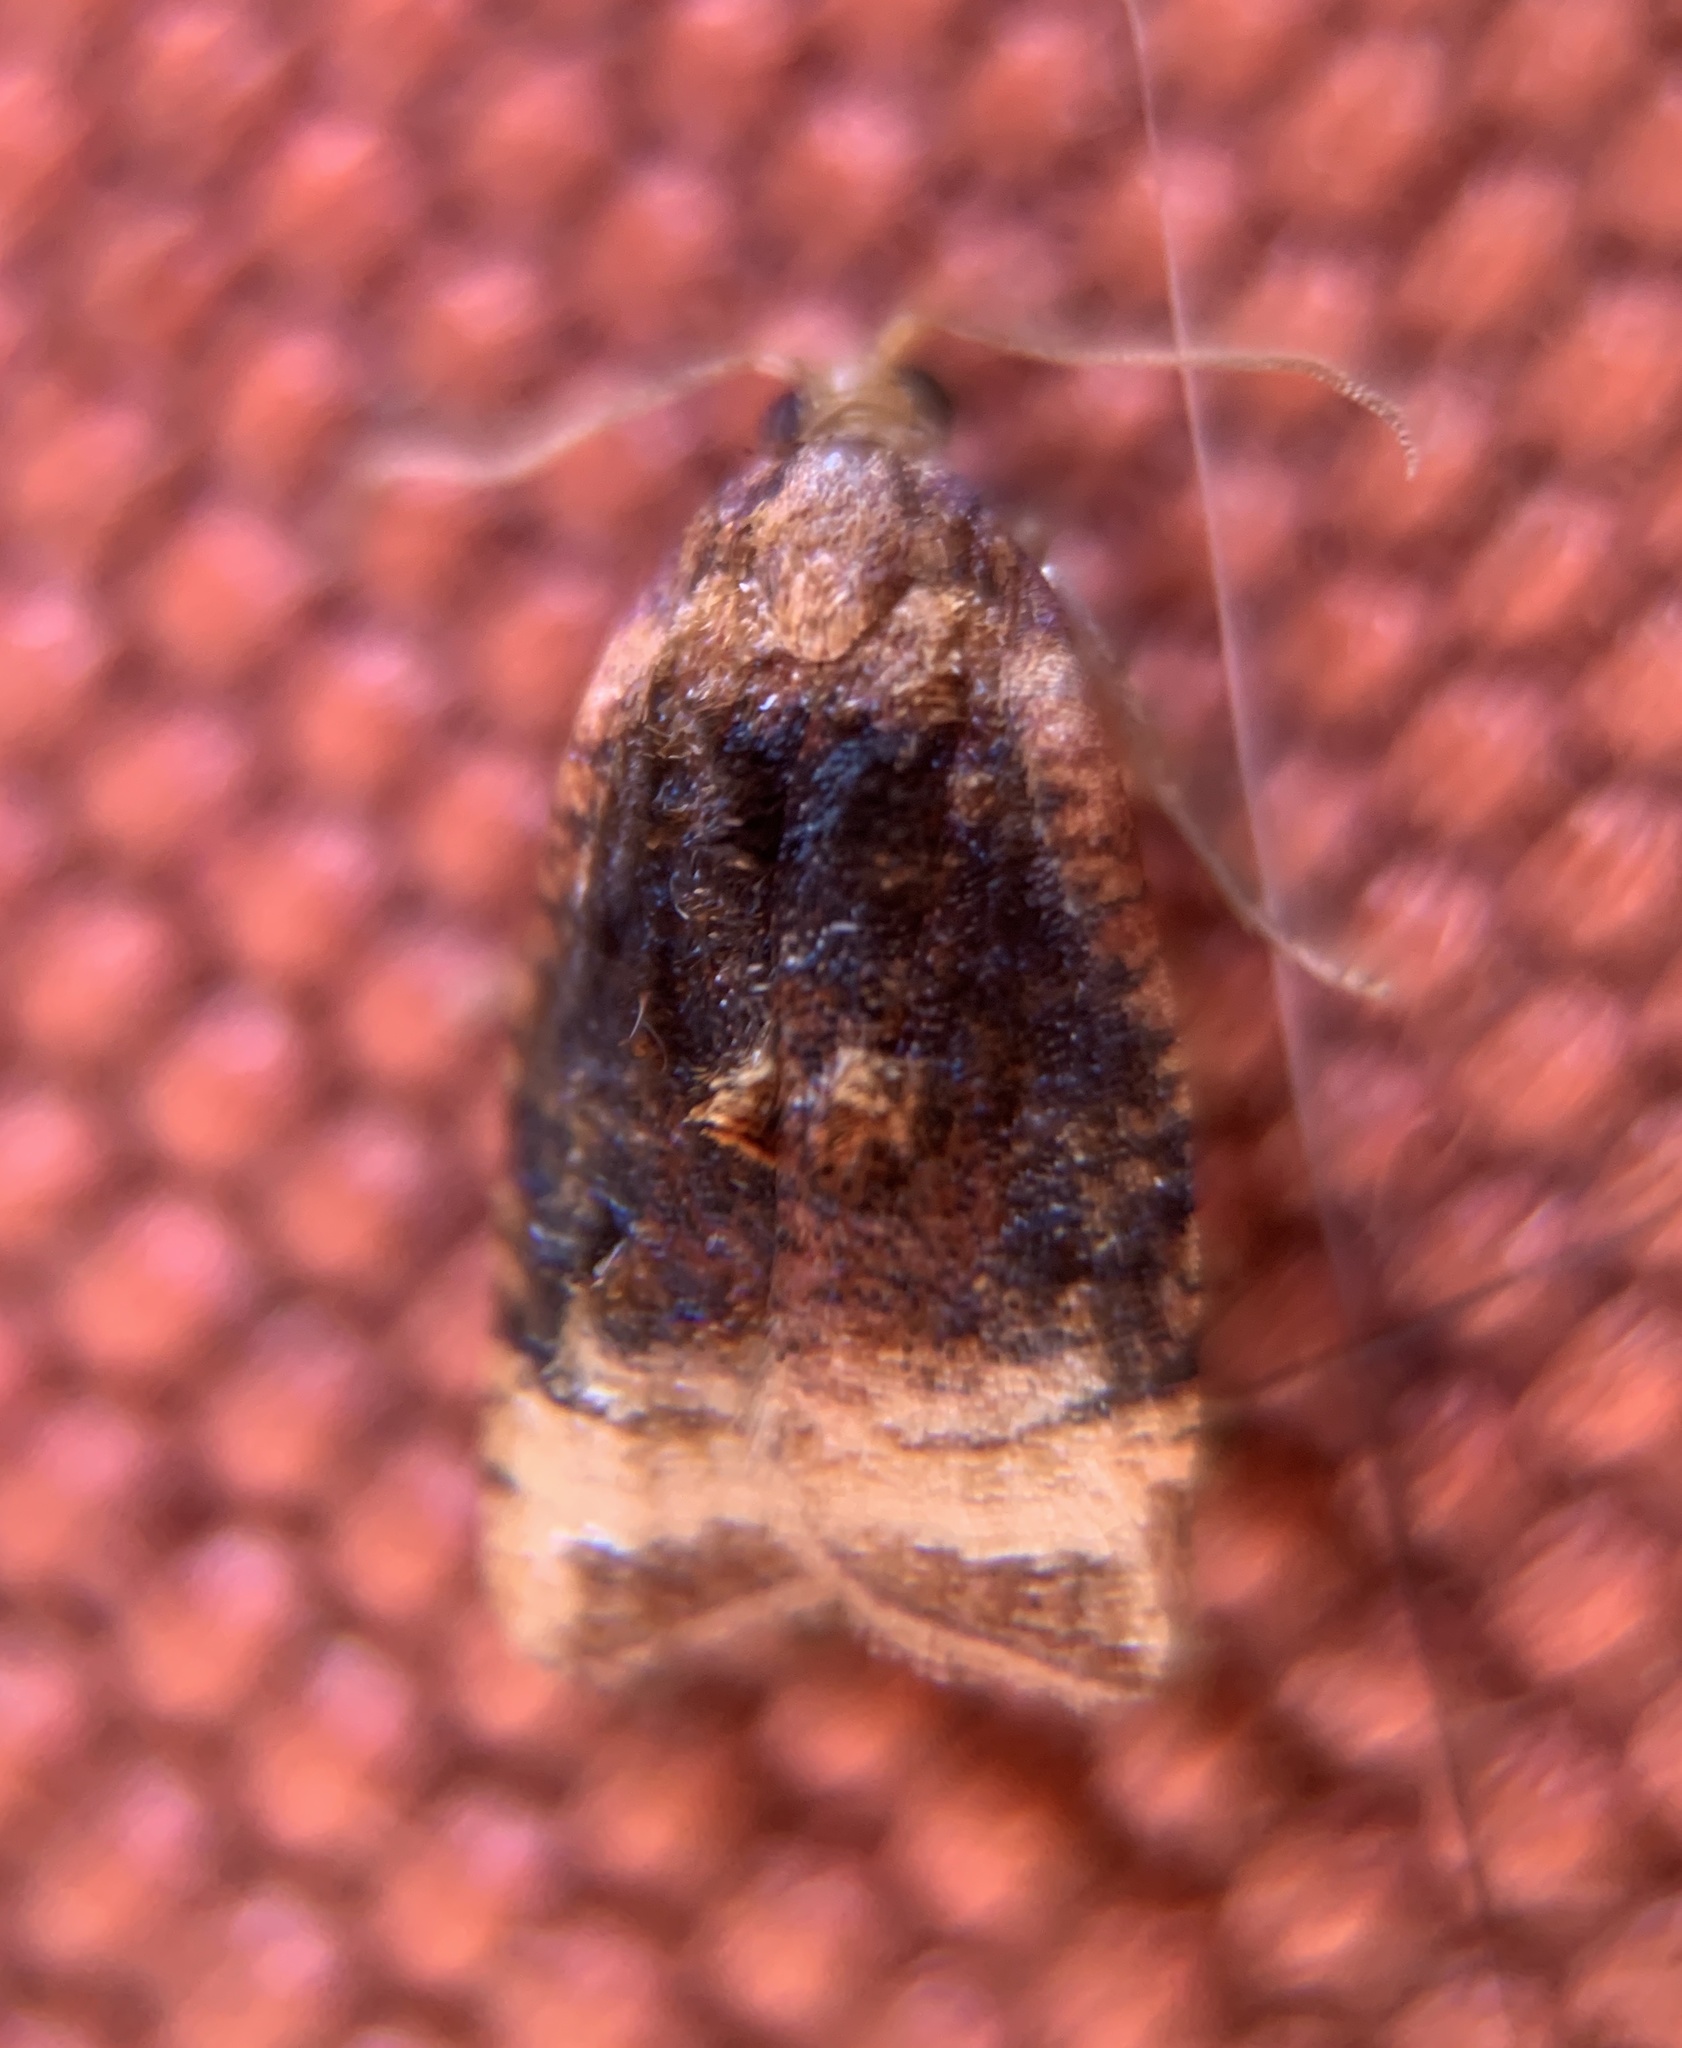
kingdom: Animalia
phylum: Arthropoda
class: Insecta
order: Lepidoptera
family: Tortricidae
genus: Platynota
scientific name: Platynota flavedana
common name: Black-shaded platynota moth
